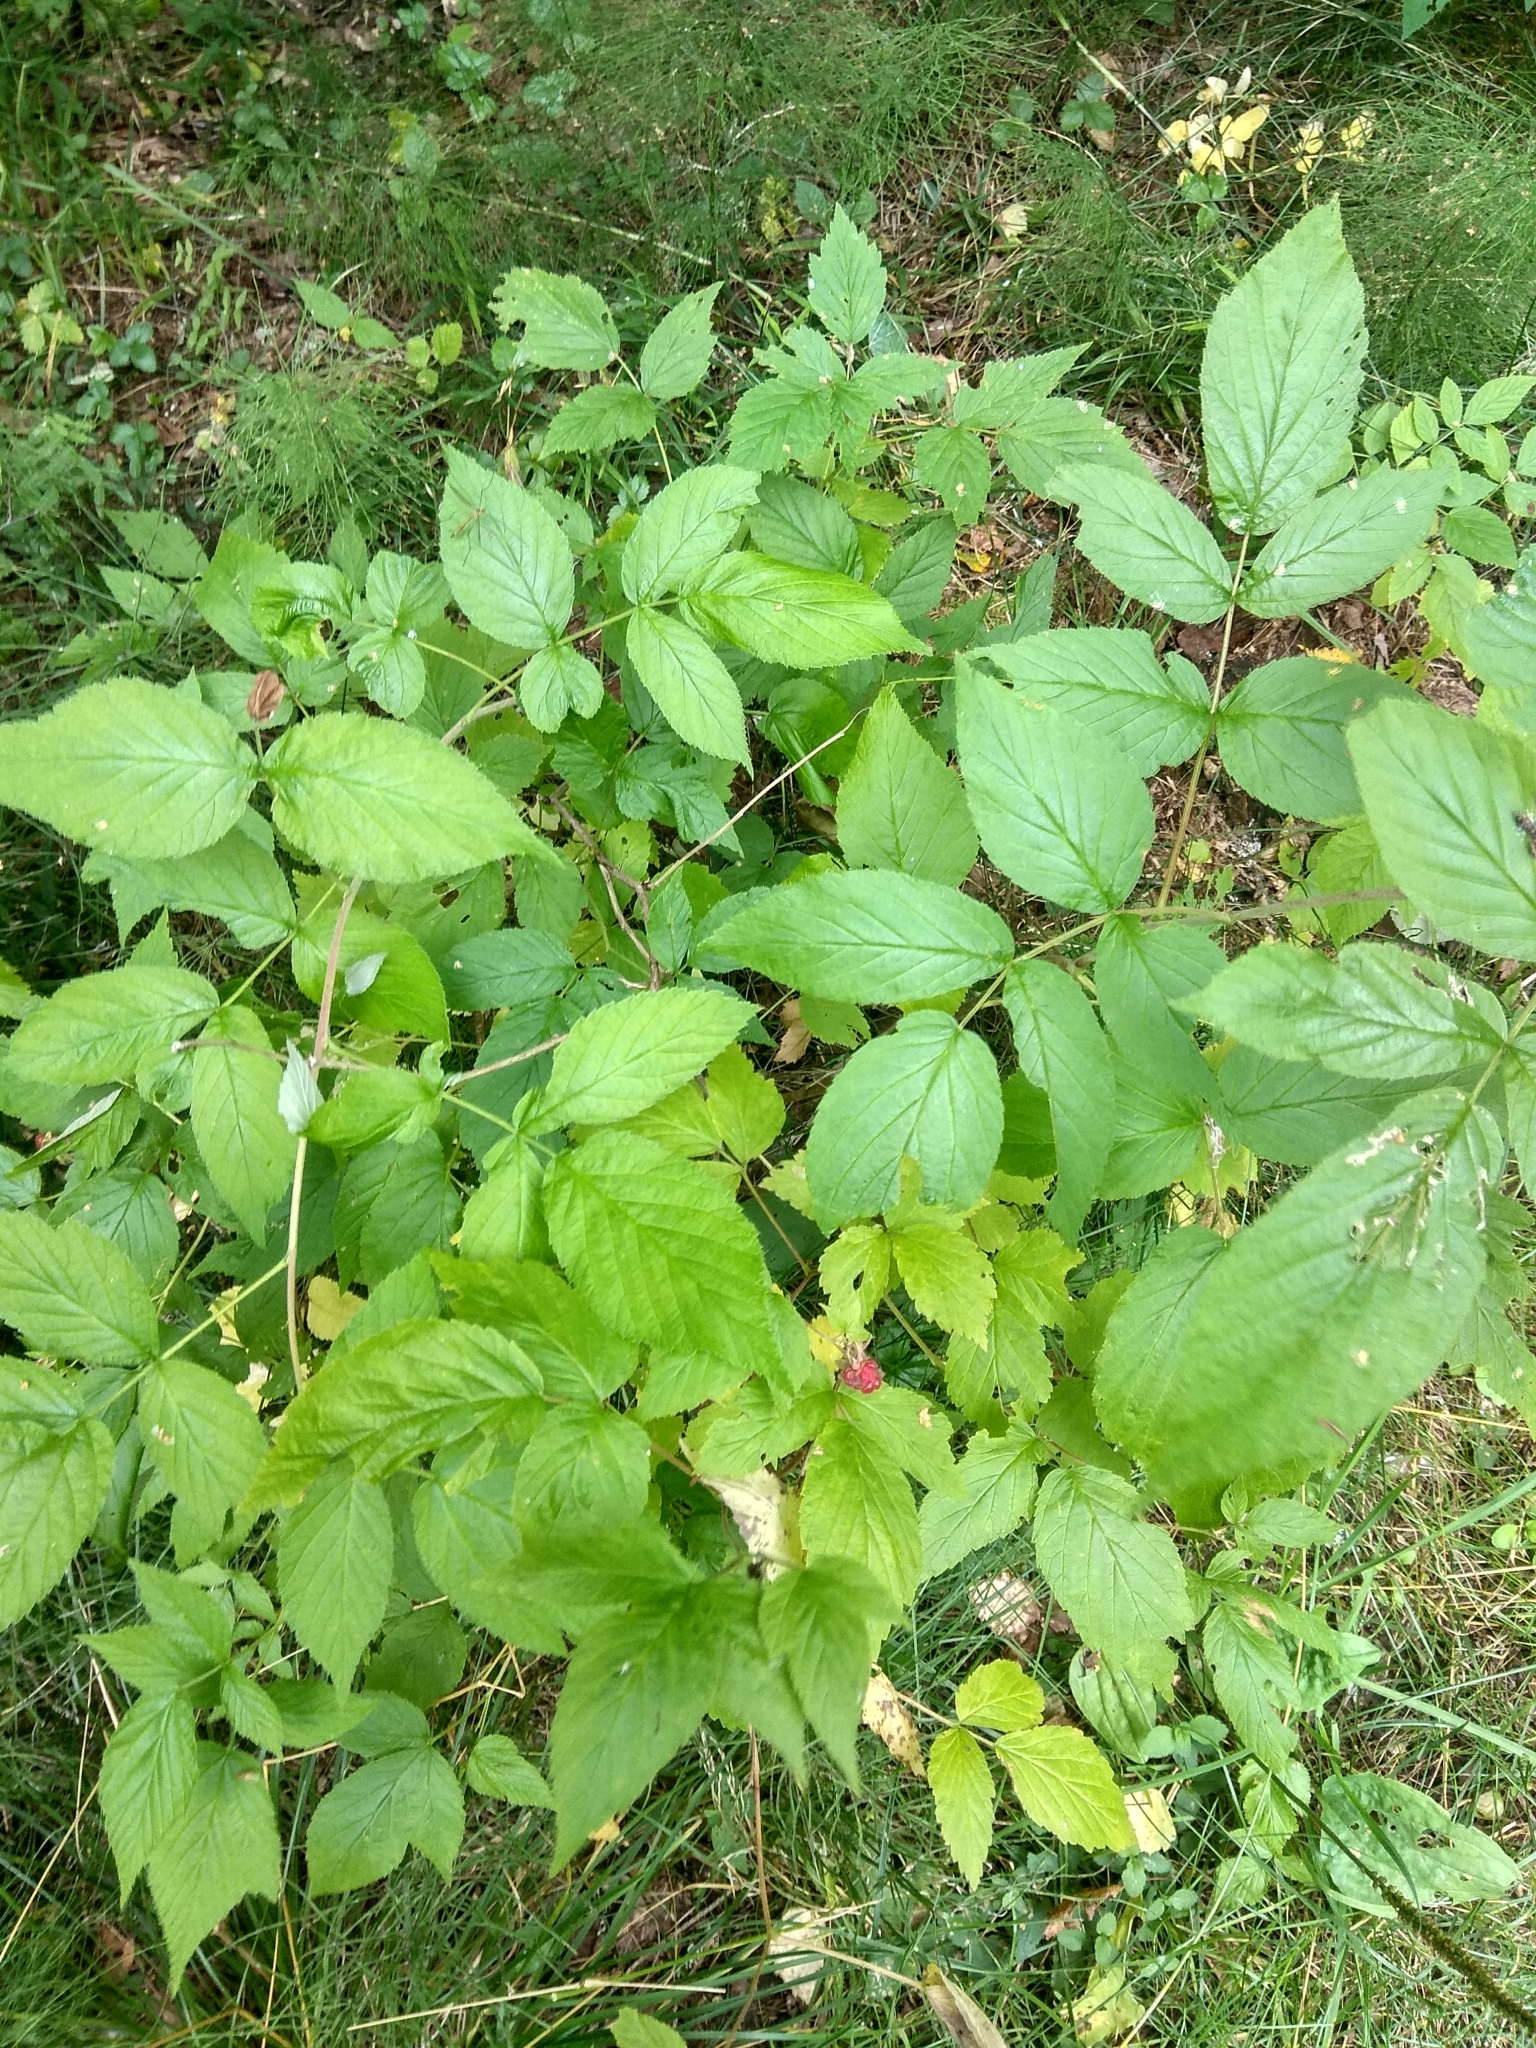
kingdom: Plantae
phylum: Tracheophyta
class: Magnoliopsida
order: Rosales
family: Rosaceae
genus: Rubus
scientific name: Rubus idaeus
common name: Raspberry
